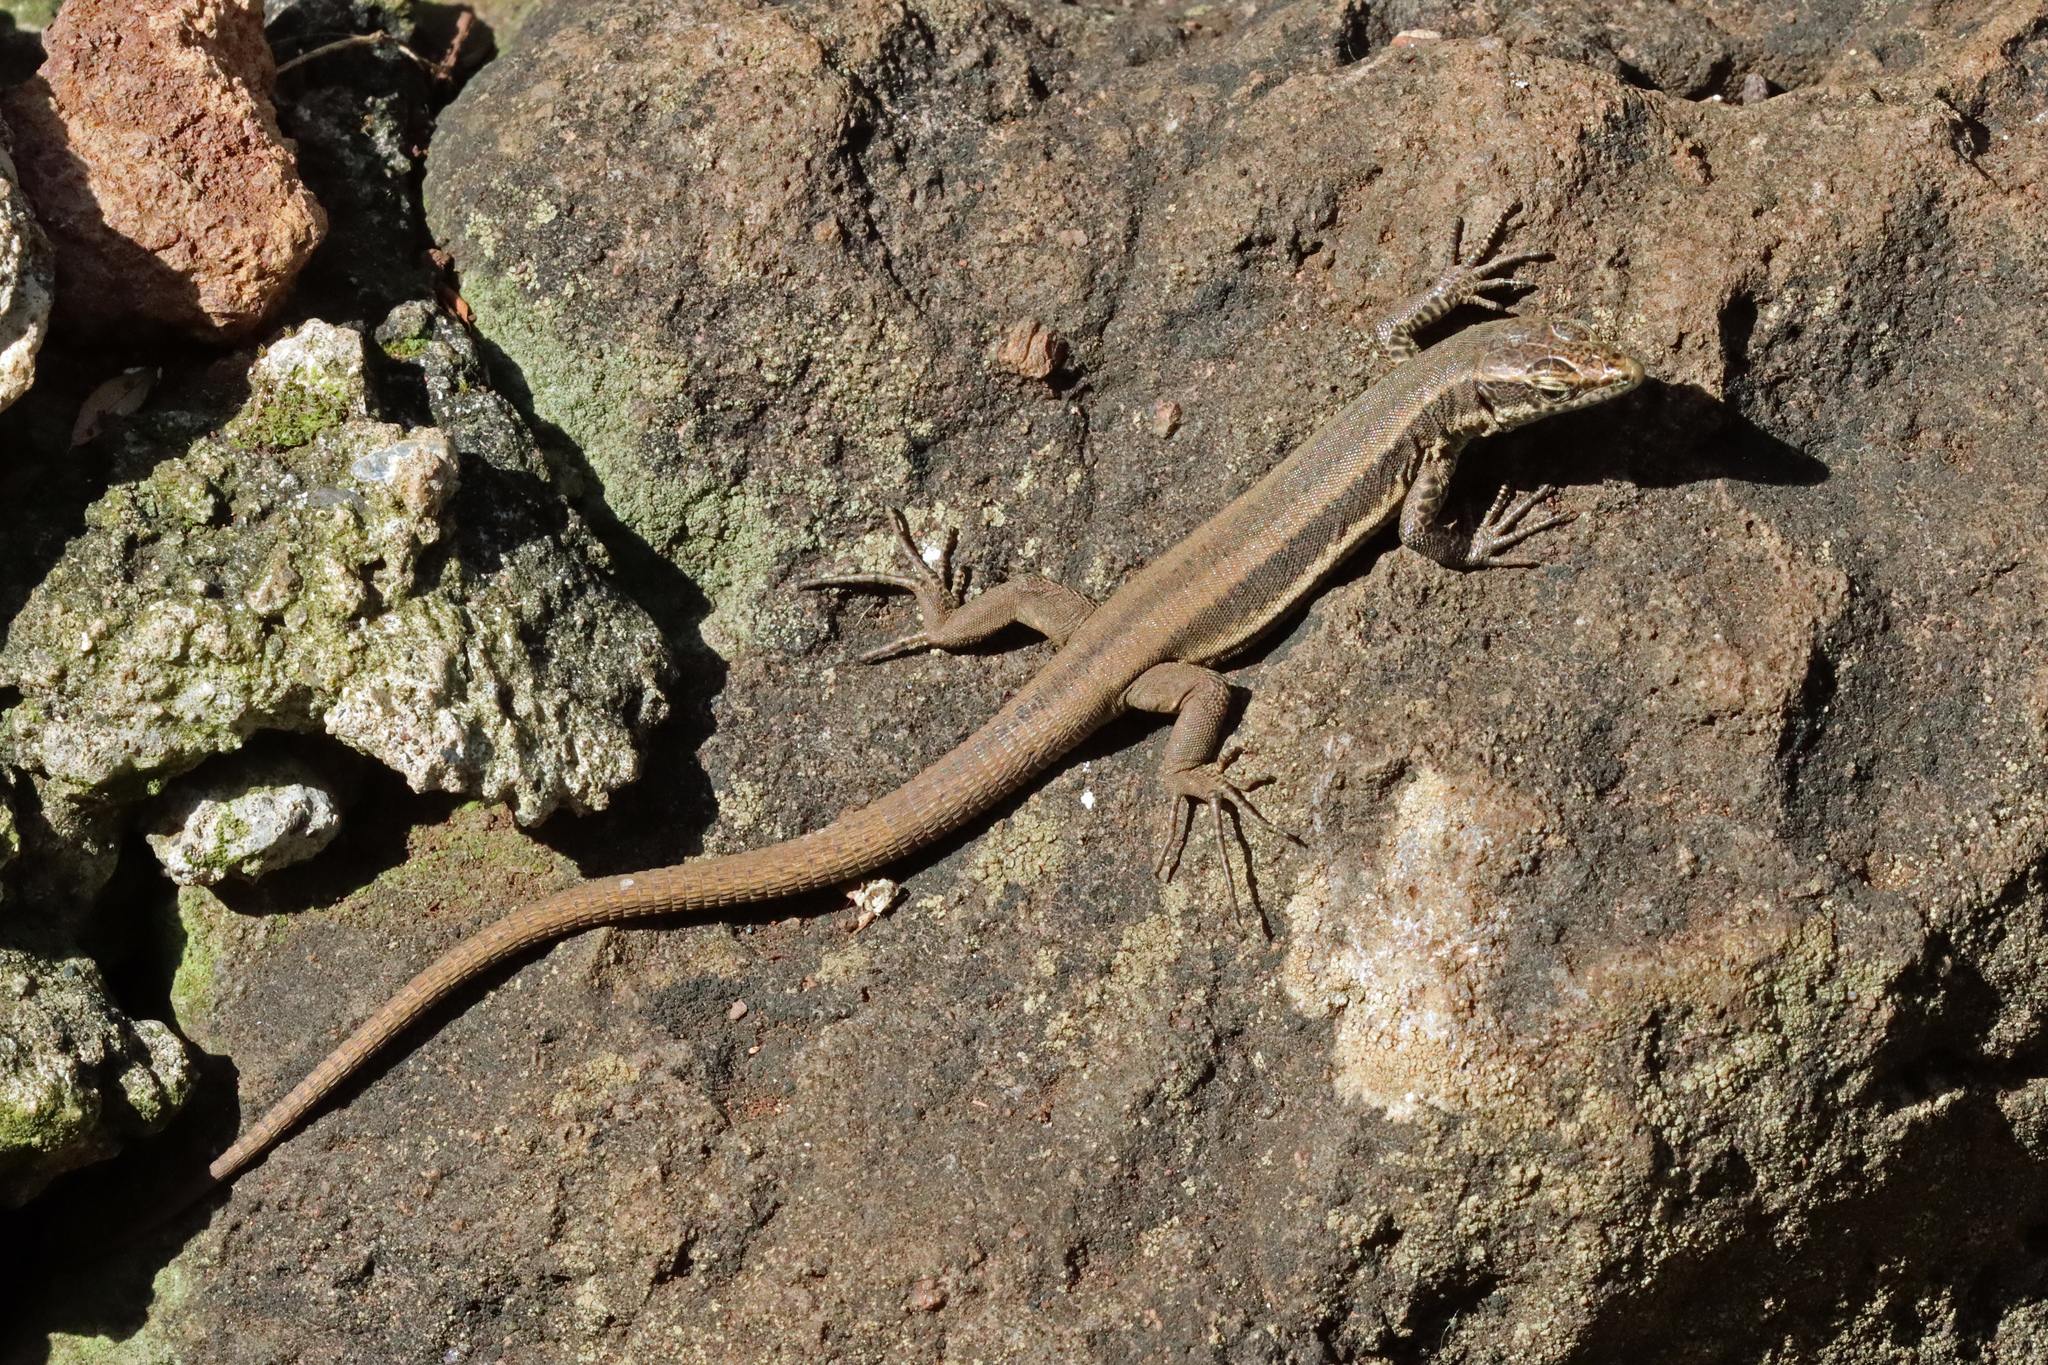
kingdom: Animalia
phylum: Chordata
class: Squamata
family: Lacertidae
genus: Teira
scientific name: Teira dugesii
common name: Madeira lizard
